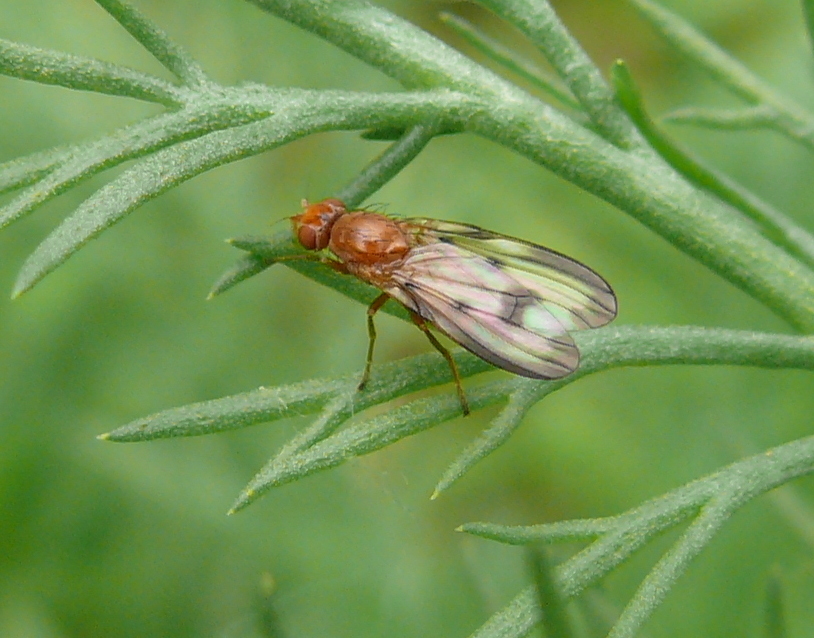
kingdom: Animalia
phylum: Arthropoda
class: Insecta
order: Diptera
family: Pallopteridae
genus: Toxonevra
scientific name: Toxonevra jucunda
